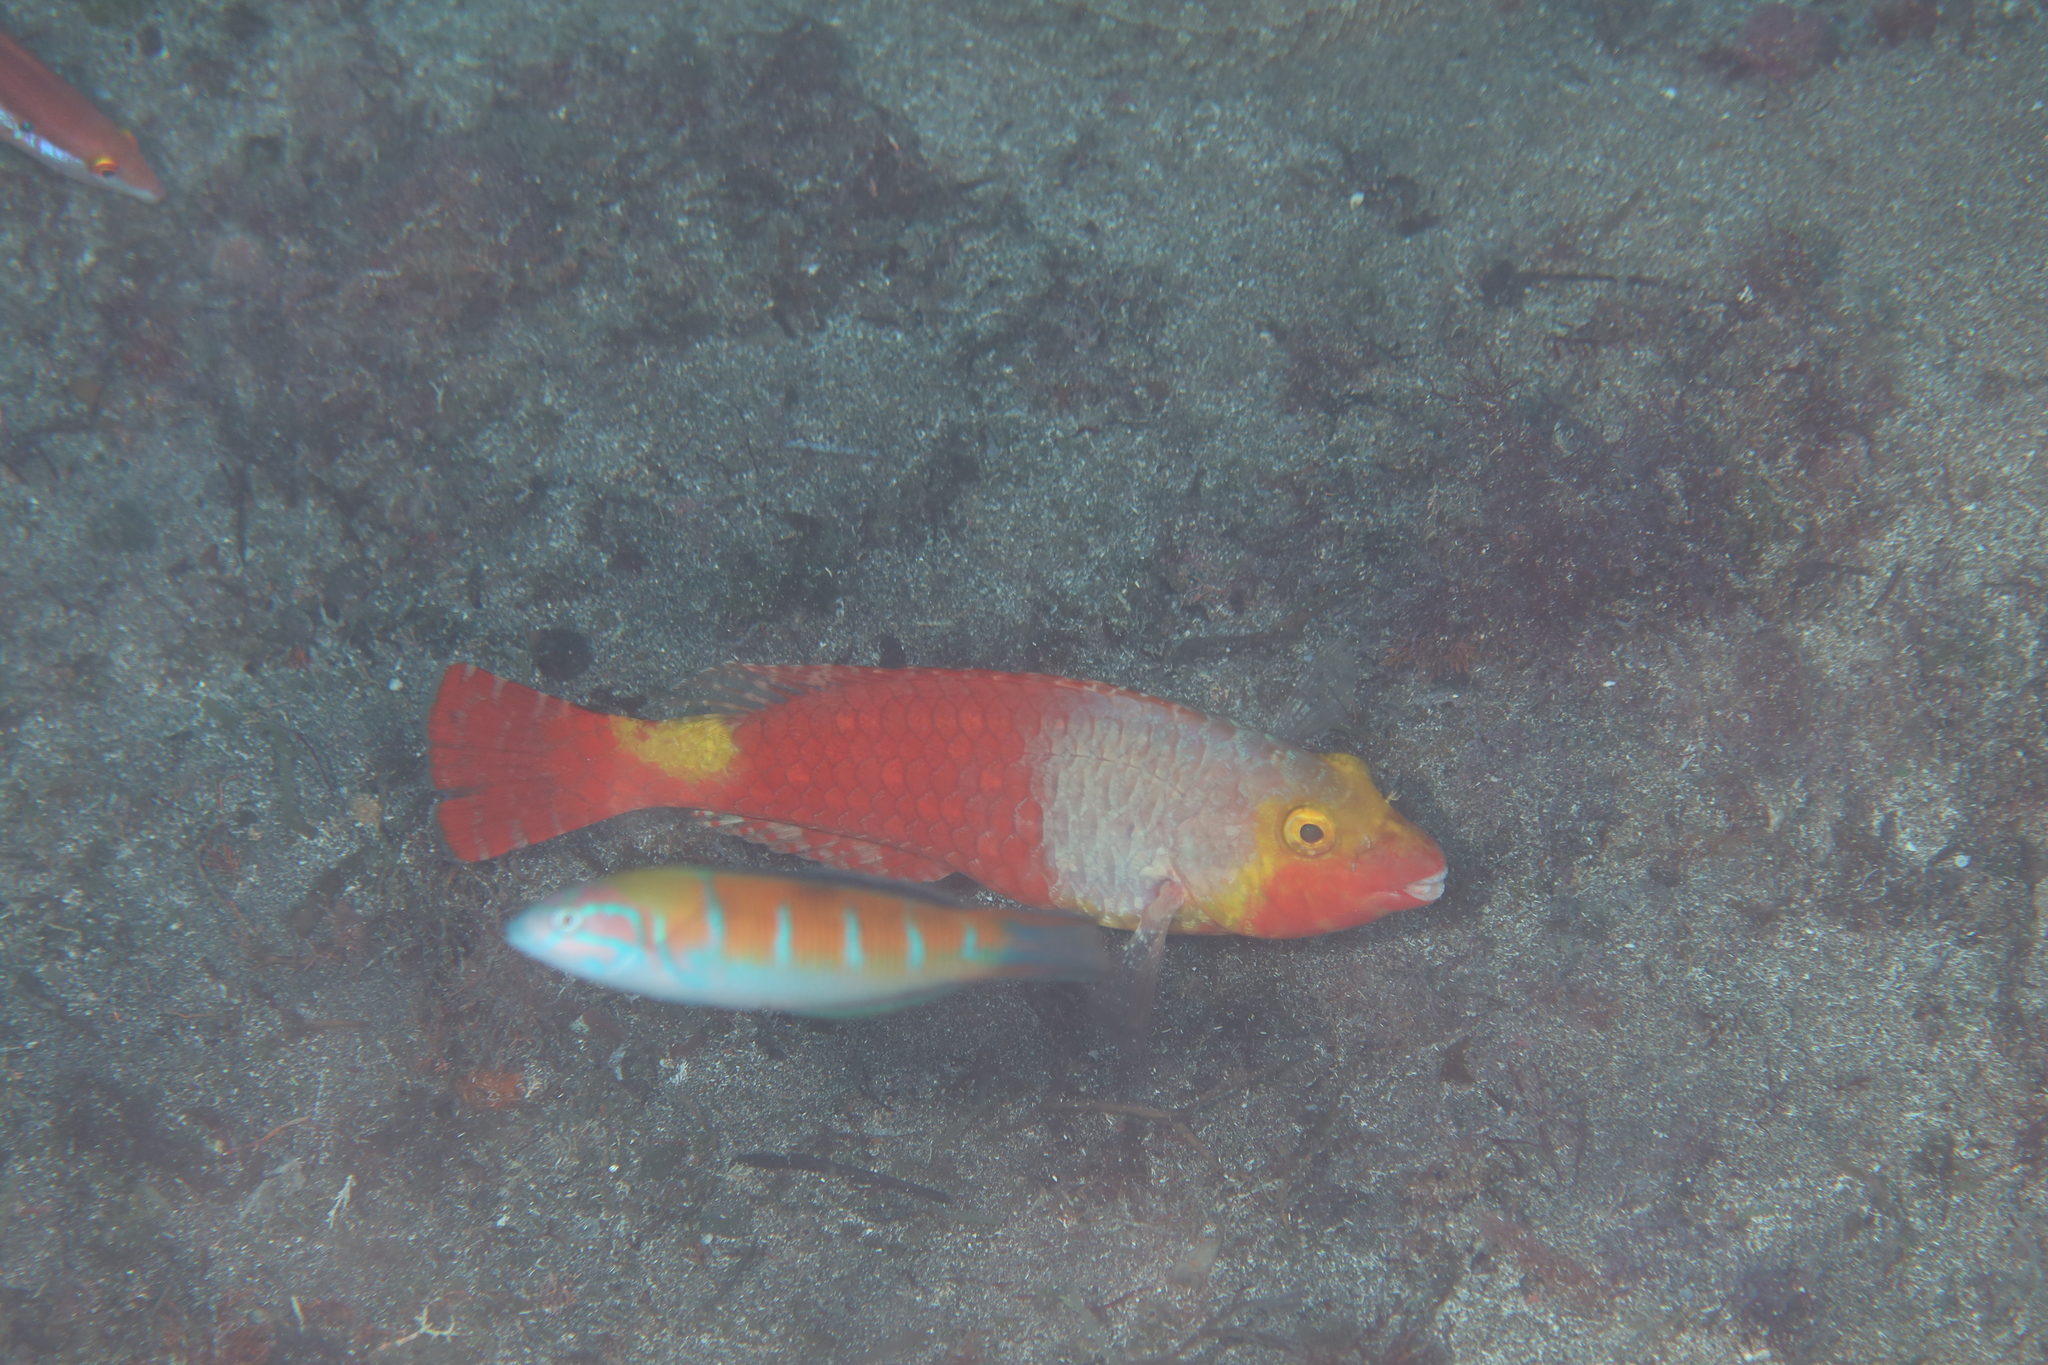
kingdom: Animalia
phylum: Chordata
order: Perciformes
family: Scaridae
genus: Sparisoma
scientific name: Sparisoma cretense
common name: Parrotfish
